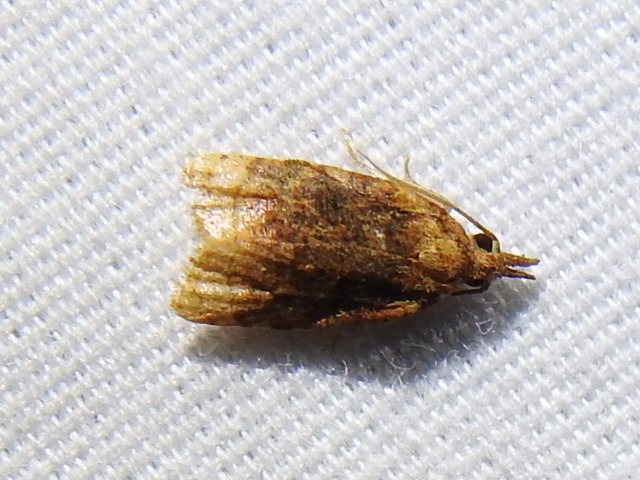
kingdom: Animalia
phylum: Arthropoda
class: Insecta
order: Lepidoptera
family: Tortricidae
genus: Platynota
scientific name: Platynota flavedana
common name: Black-shaded platynota moth
